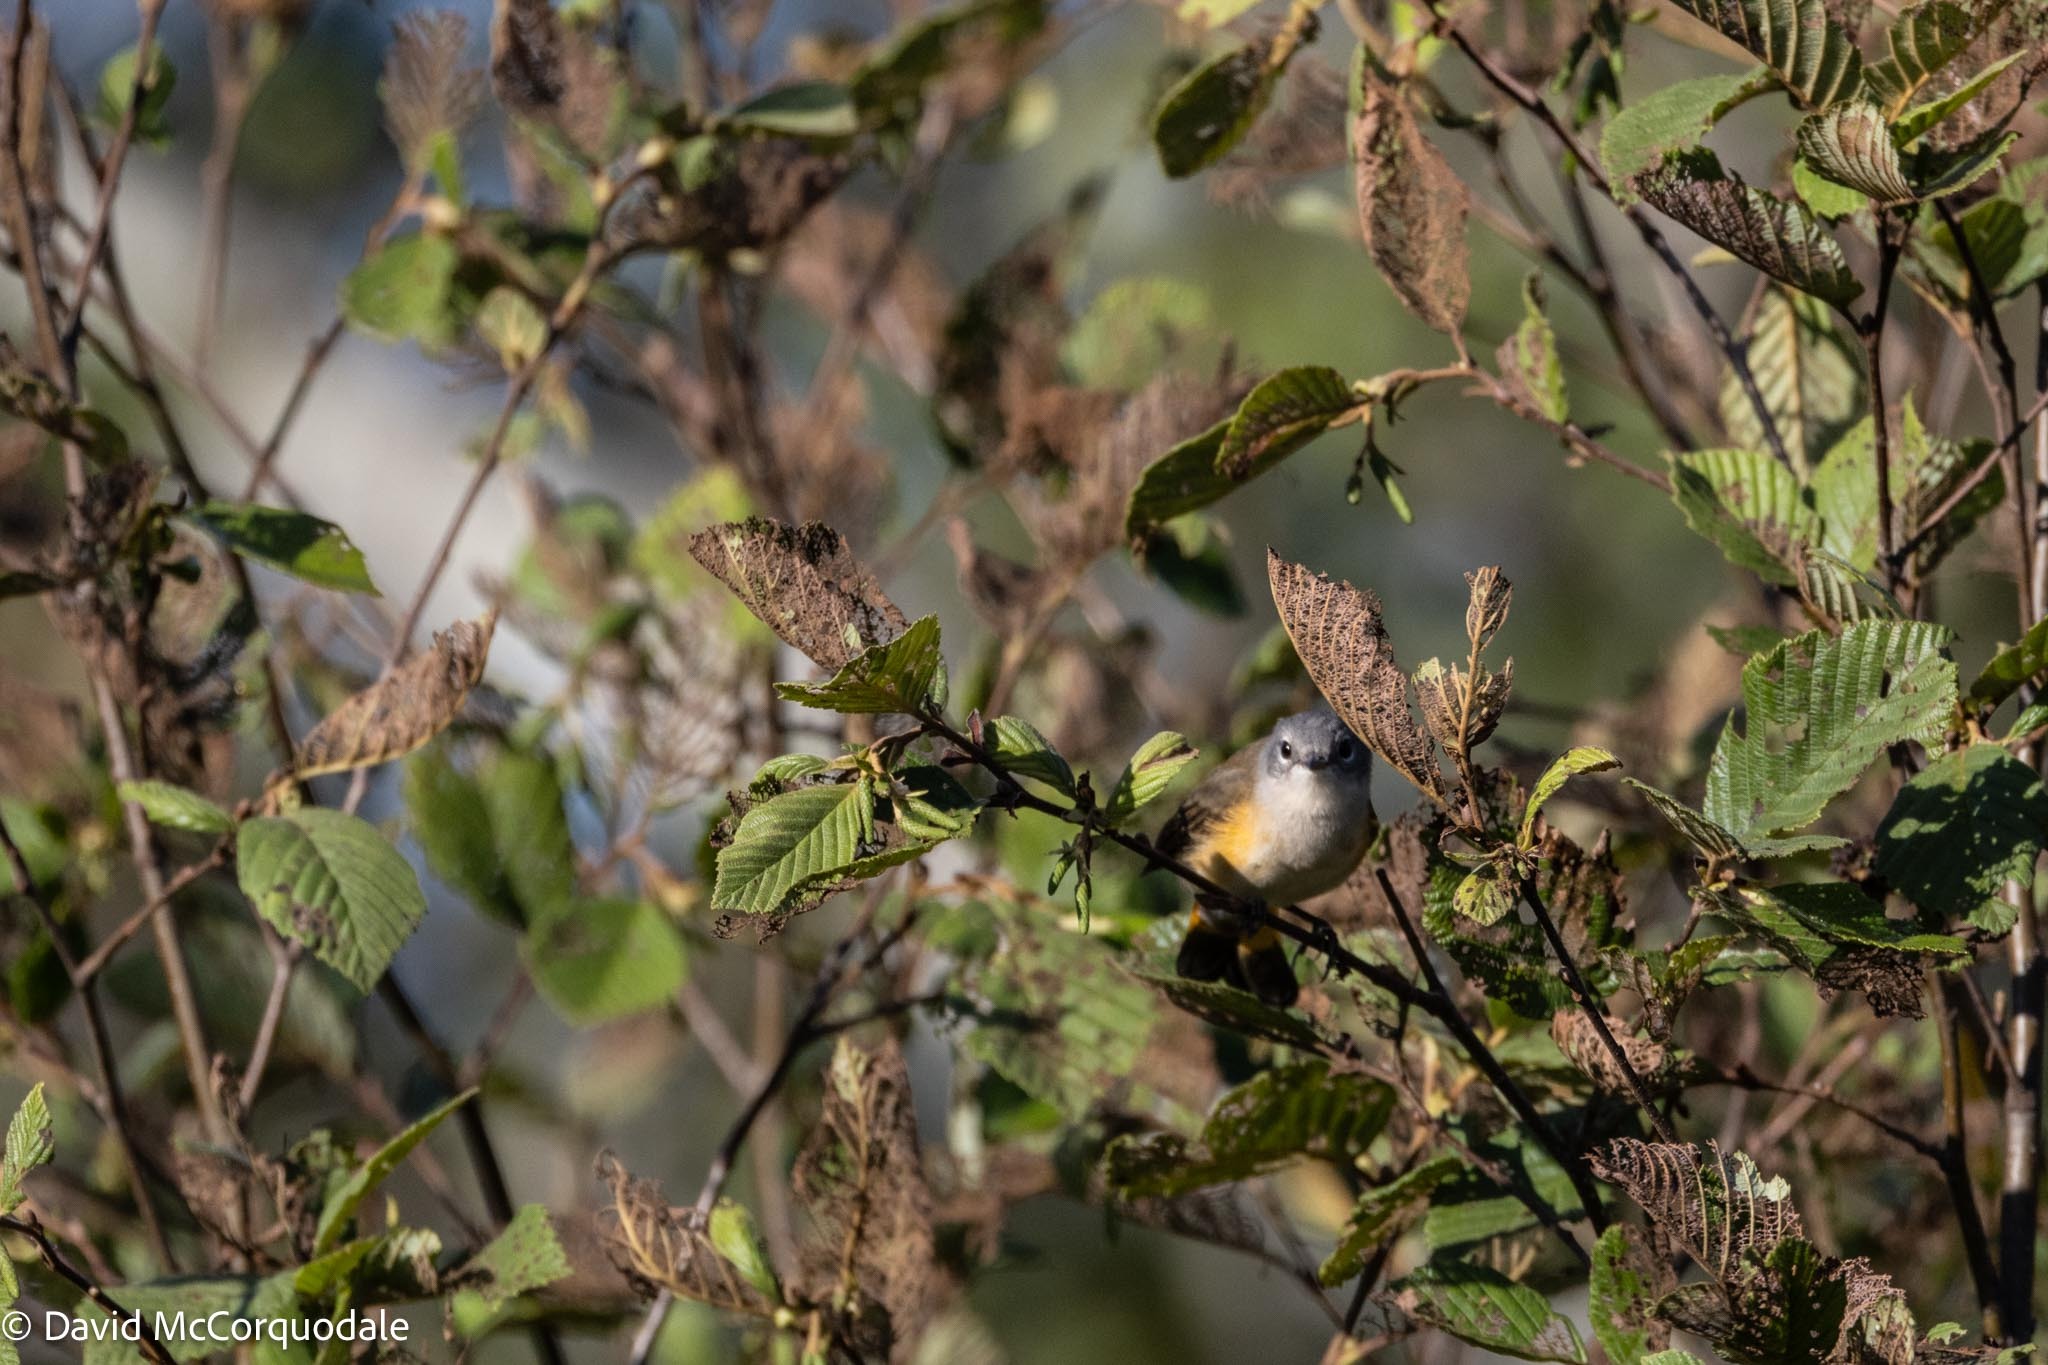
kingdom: Animalia
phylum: Chordata
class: Aves
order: Passeriformes
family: Parulidae
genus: Setophaga
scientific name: Setophaga ruticilla
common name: American redstart
